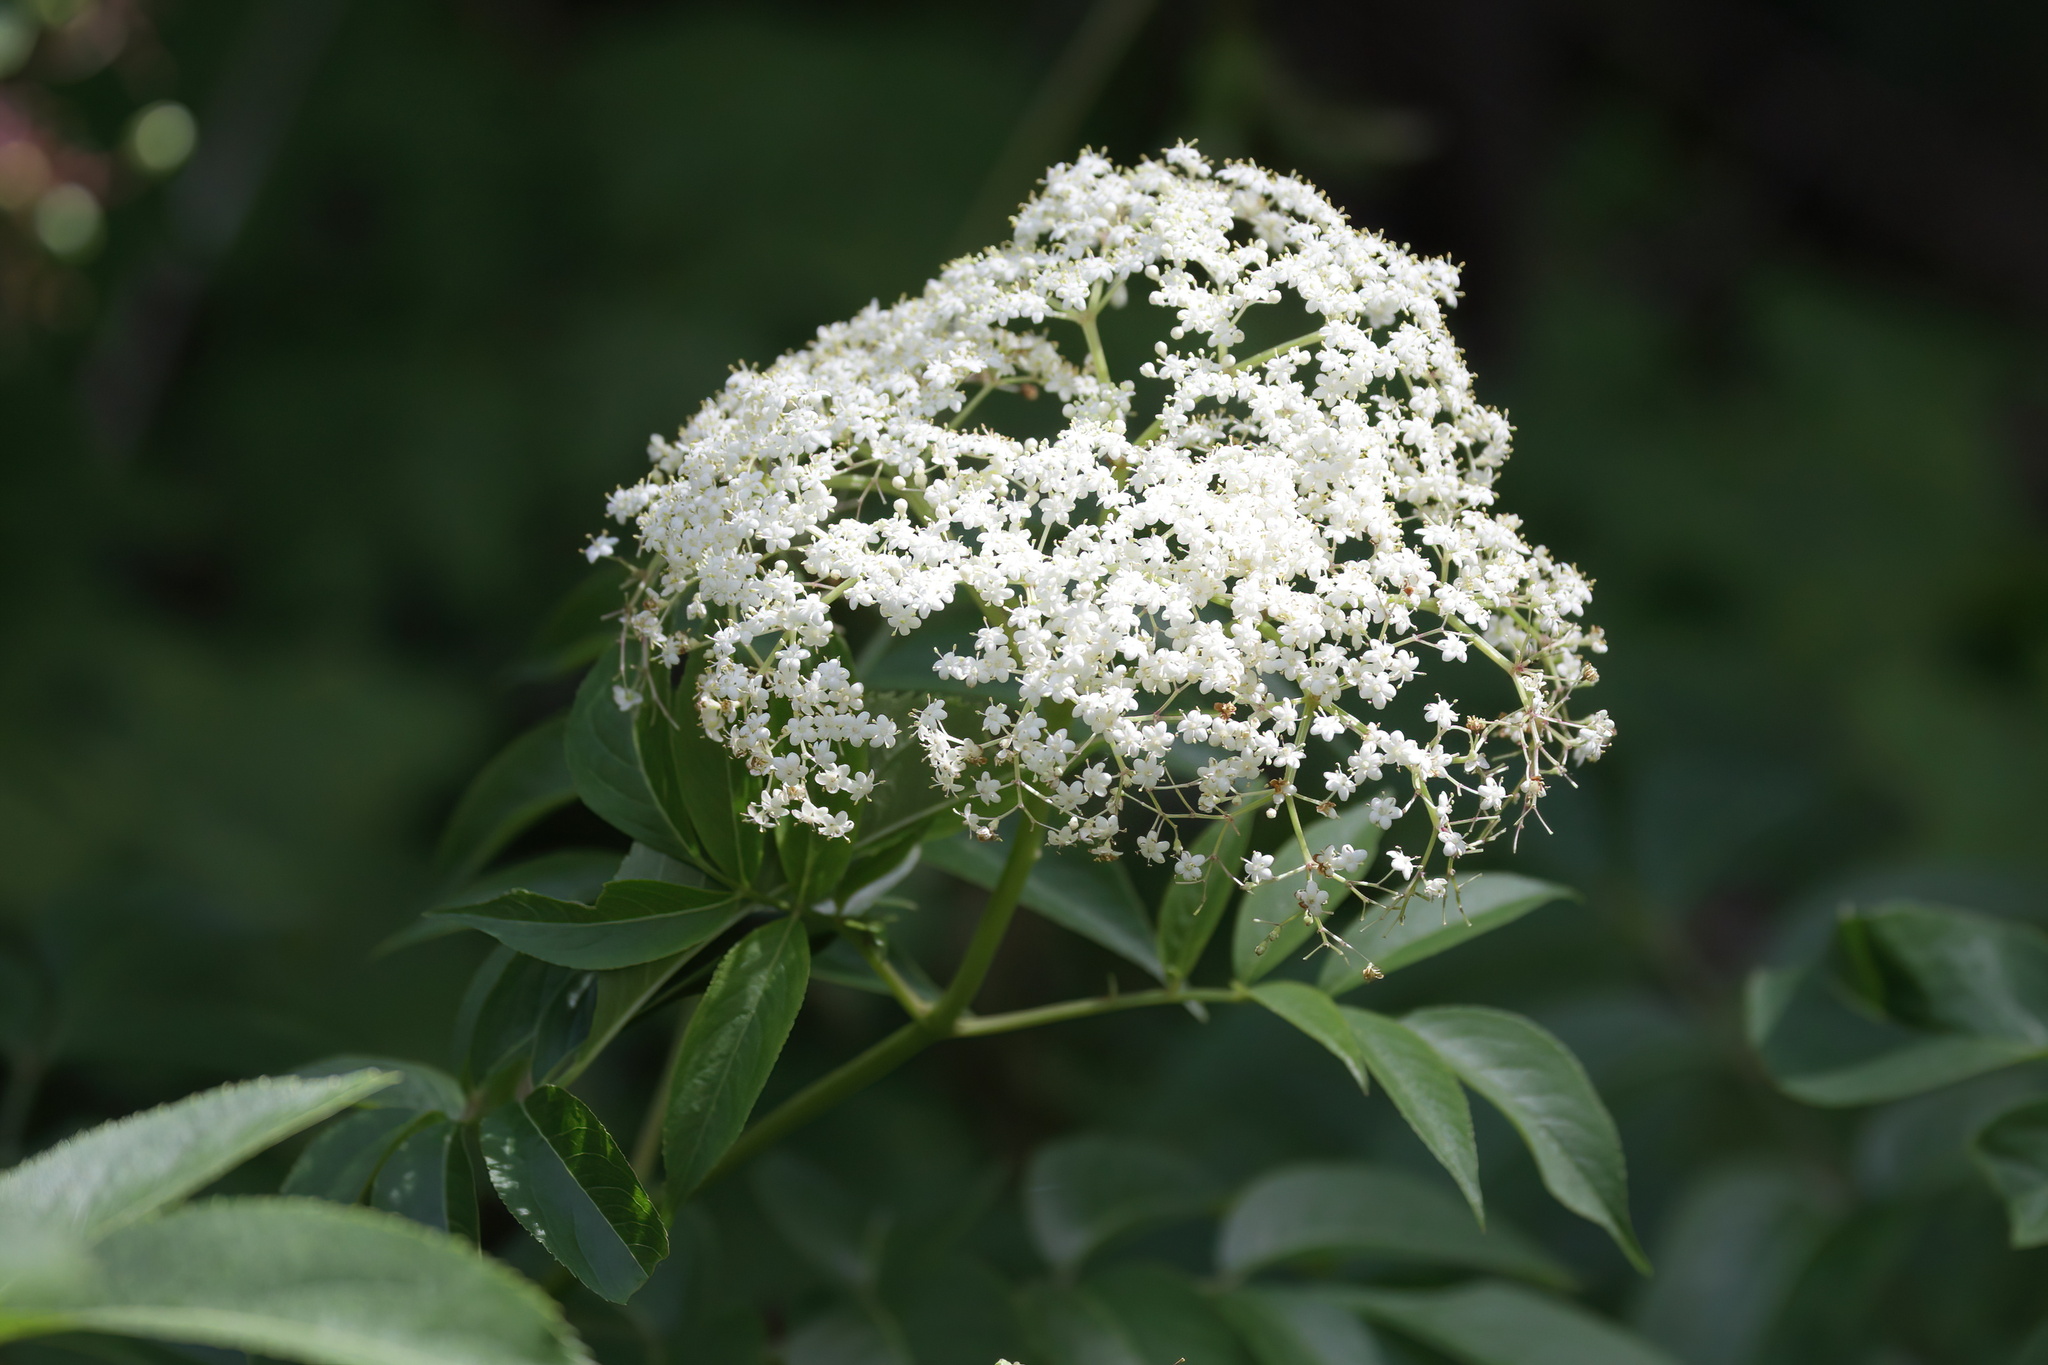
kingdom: Plantae
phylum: Tracheophyta
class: Magnoliopsida
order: Dipsacales
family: Viburnaceae
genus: Sambucus
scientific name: Sambucus canadensis
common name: American elder
